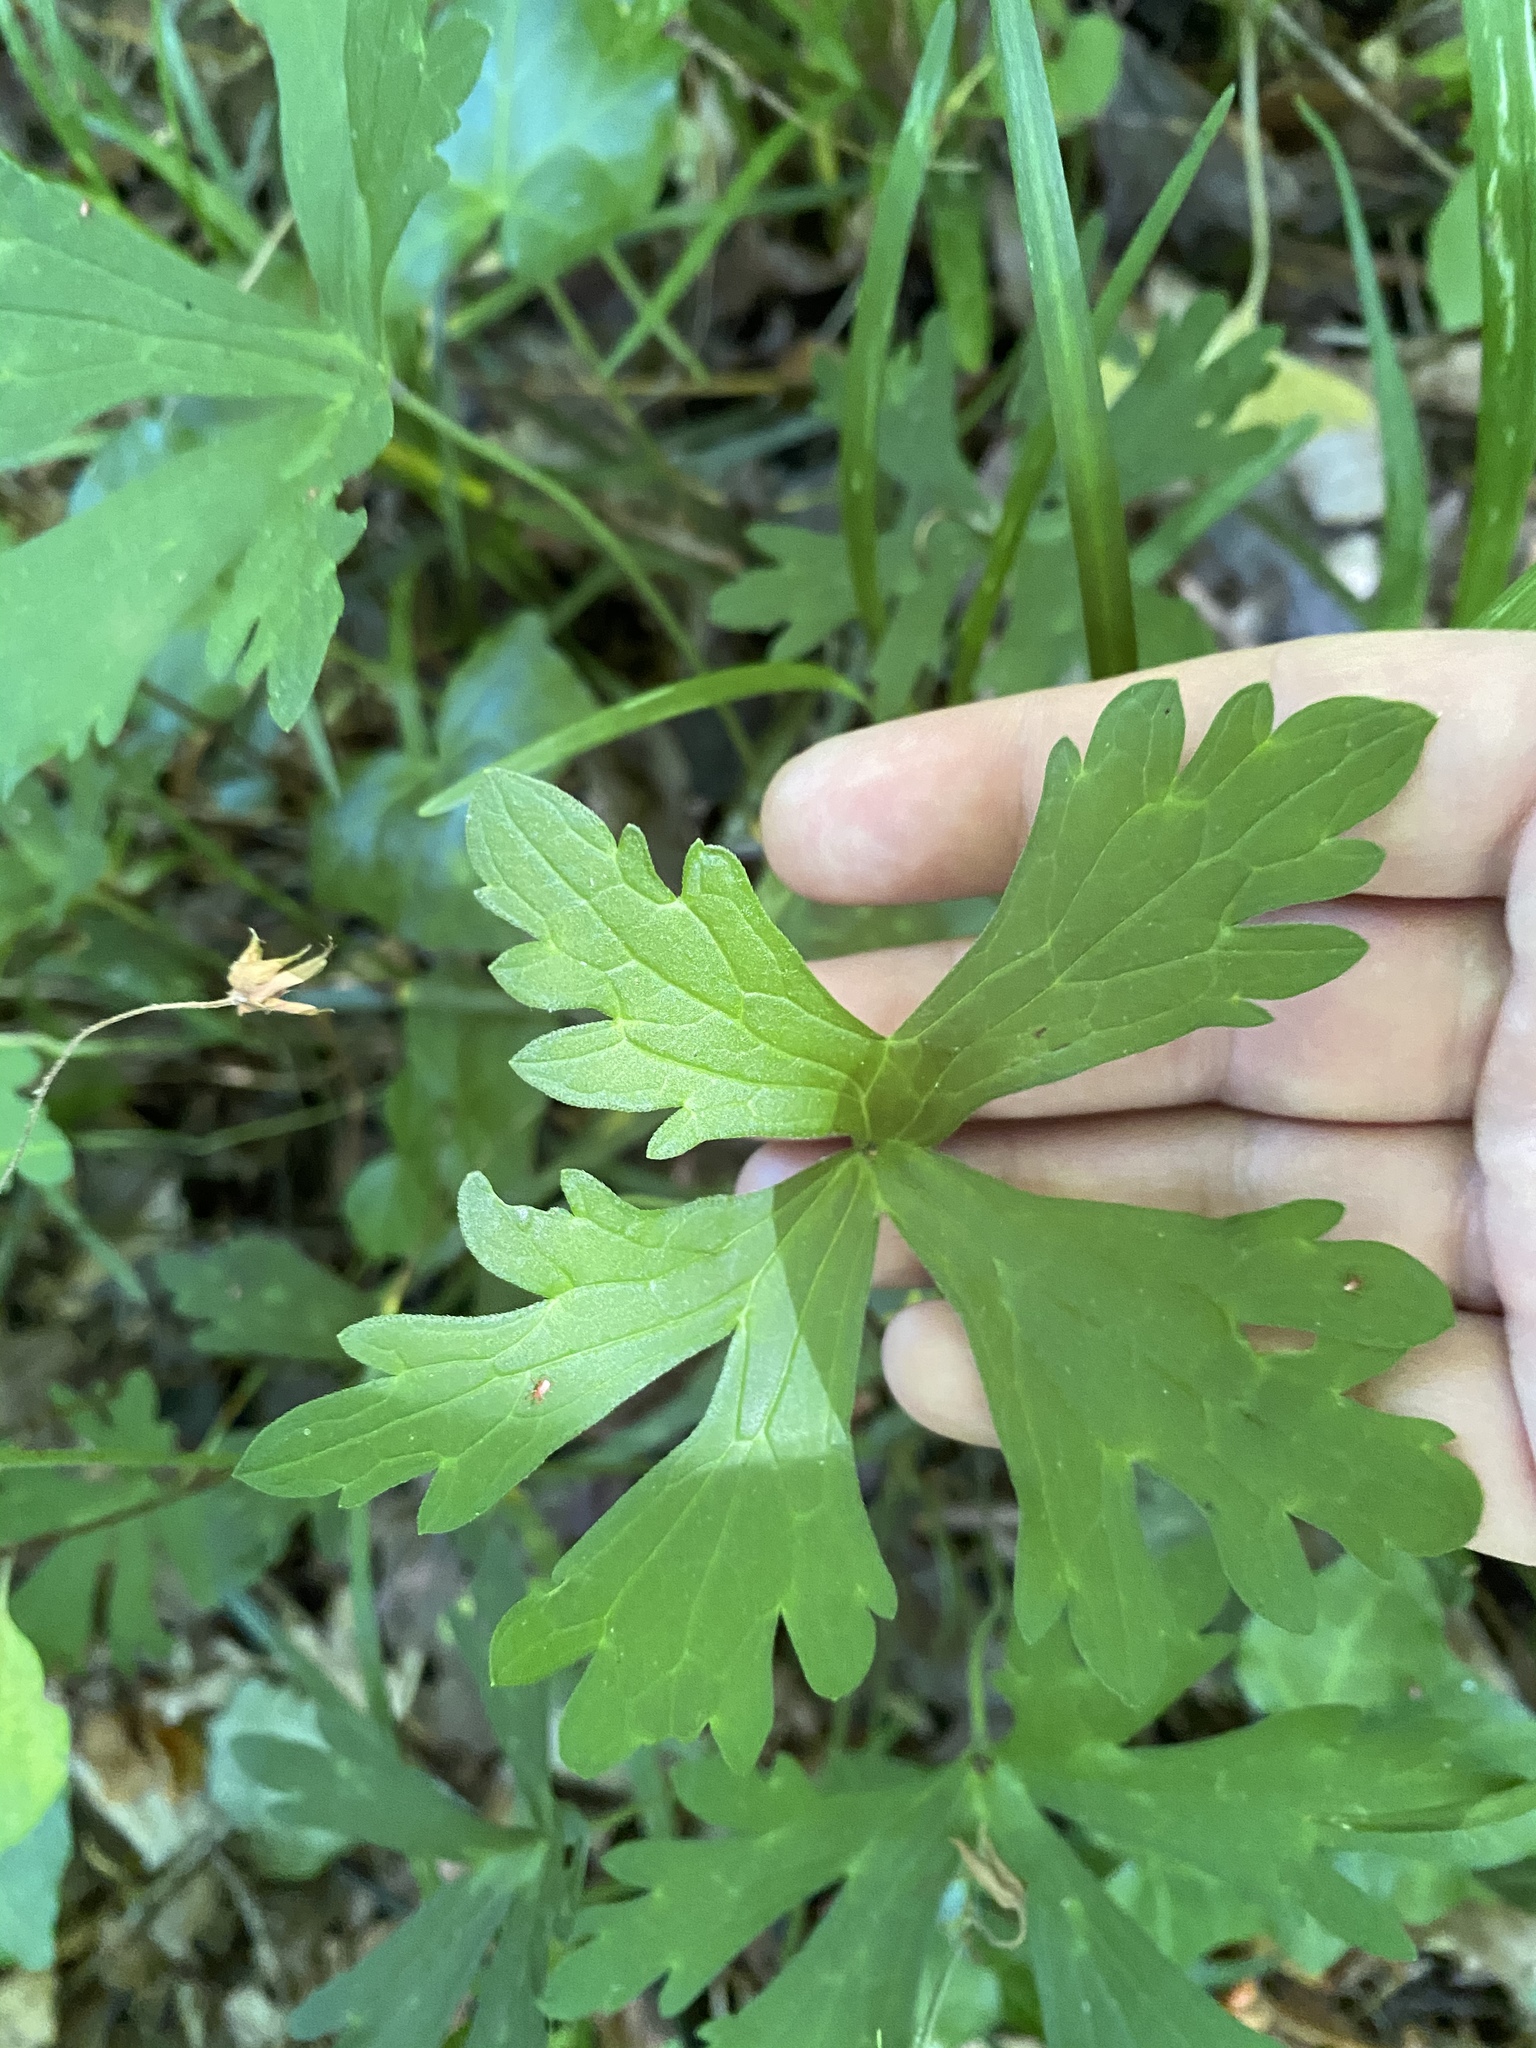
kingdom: Plantae
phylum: Tracheophyta
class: Magnoliopsida
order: Geraniales
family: Geraniaceae
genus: Geranium
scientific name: Geranium maculatum
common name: Spotted geranium
